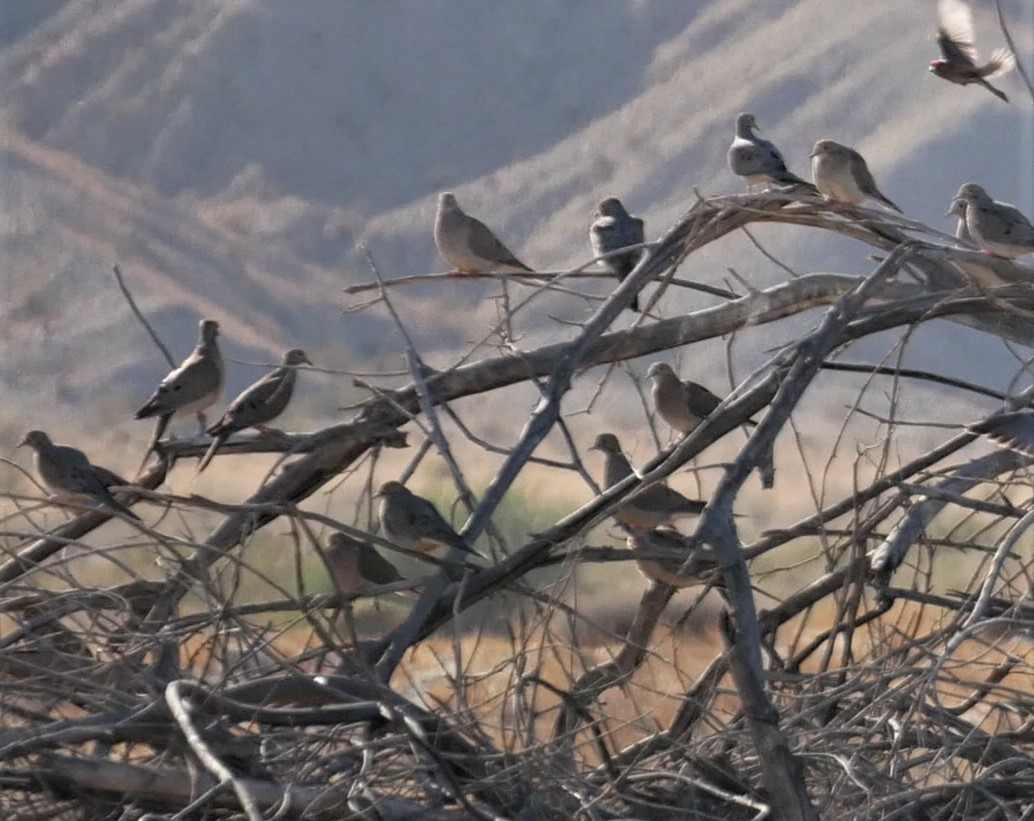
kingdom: Animalia
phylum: Chordata
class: Aves
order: Columbiformes
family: Columbidae
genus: Zenaida
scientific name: Zenaida macroura
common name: Mourning dove
